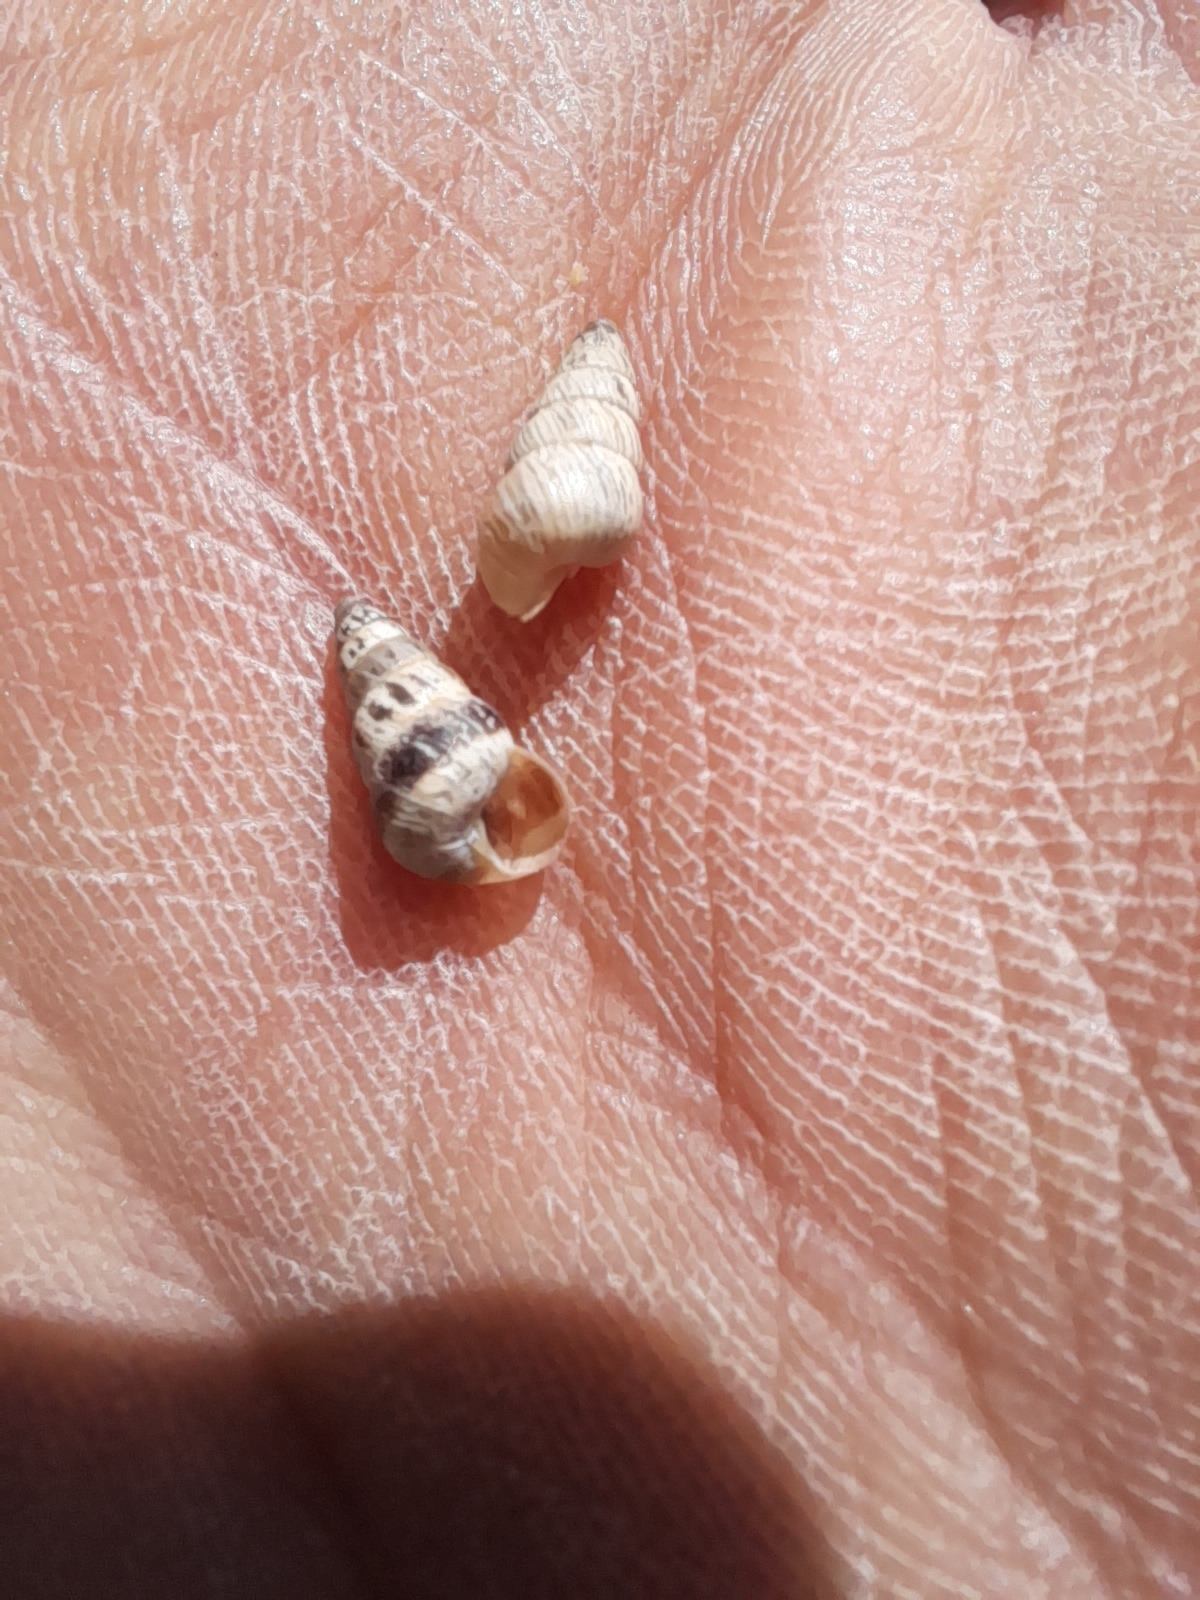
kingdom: Animalia
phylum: Mollusca
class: Gastropoda
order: Stylommatophora
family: Geomitridae
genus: Cochlicella
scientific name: Cochlicella barbara
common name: Potbellied helicellid
